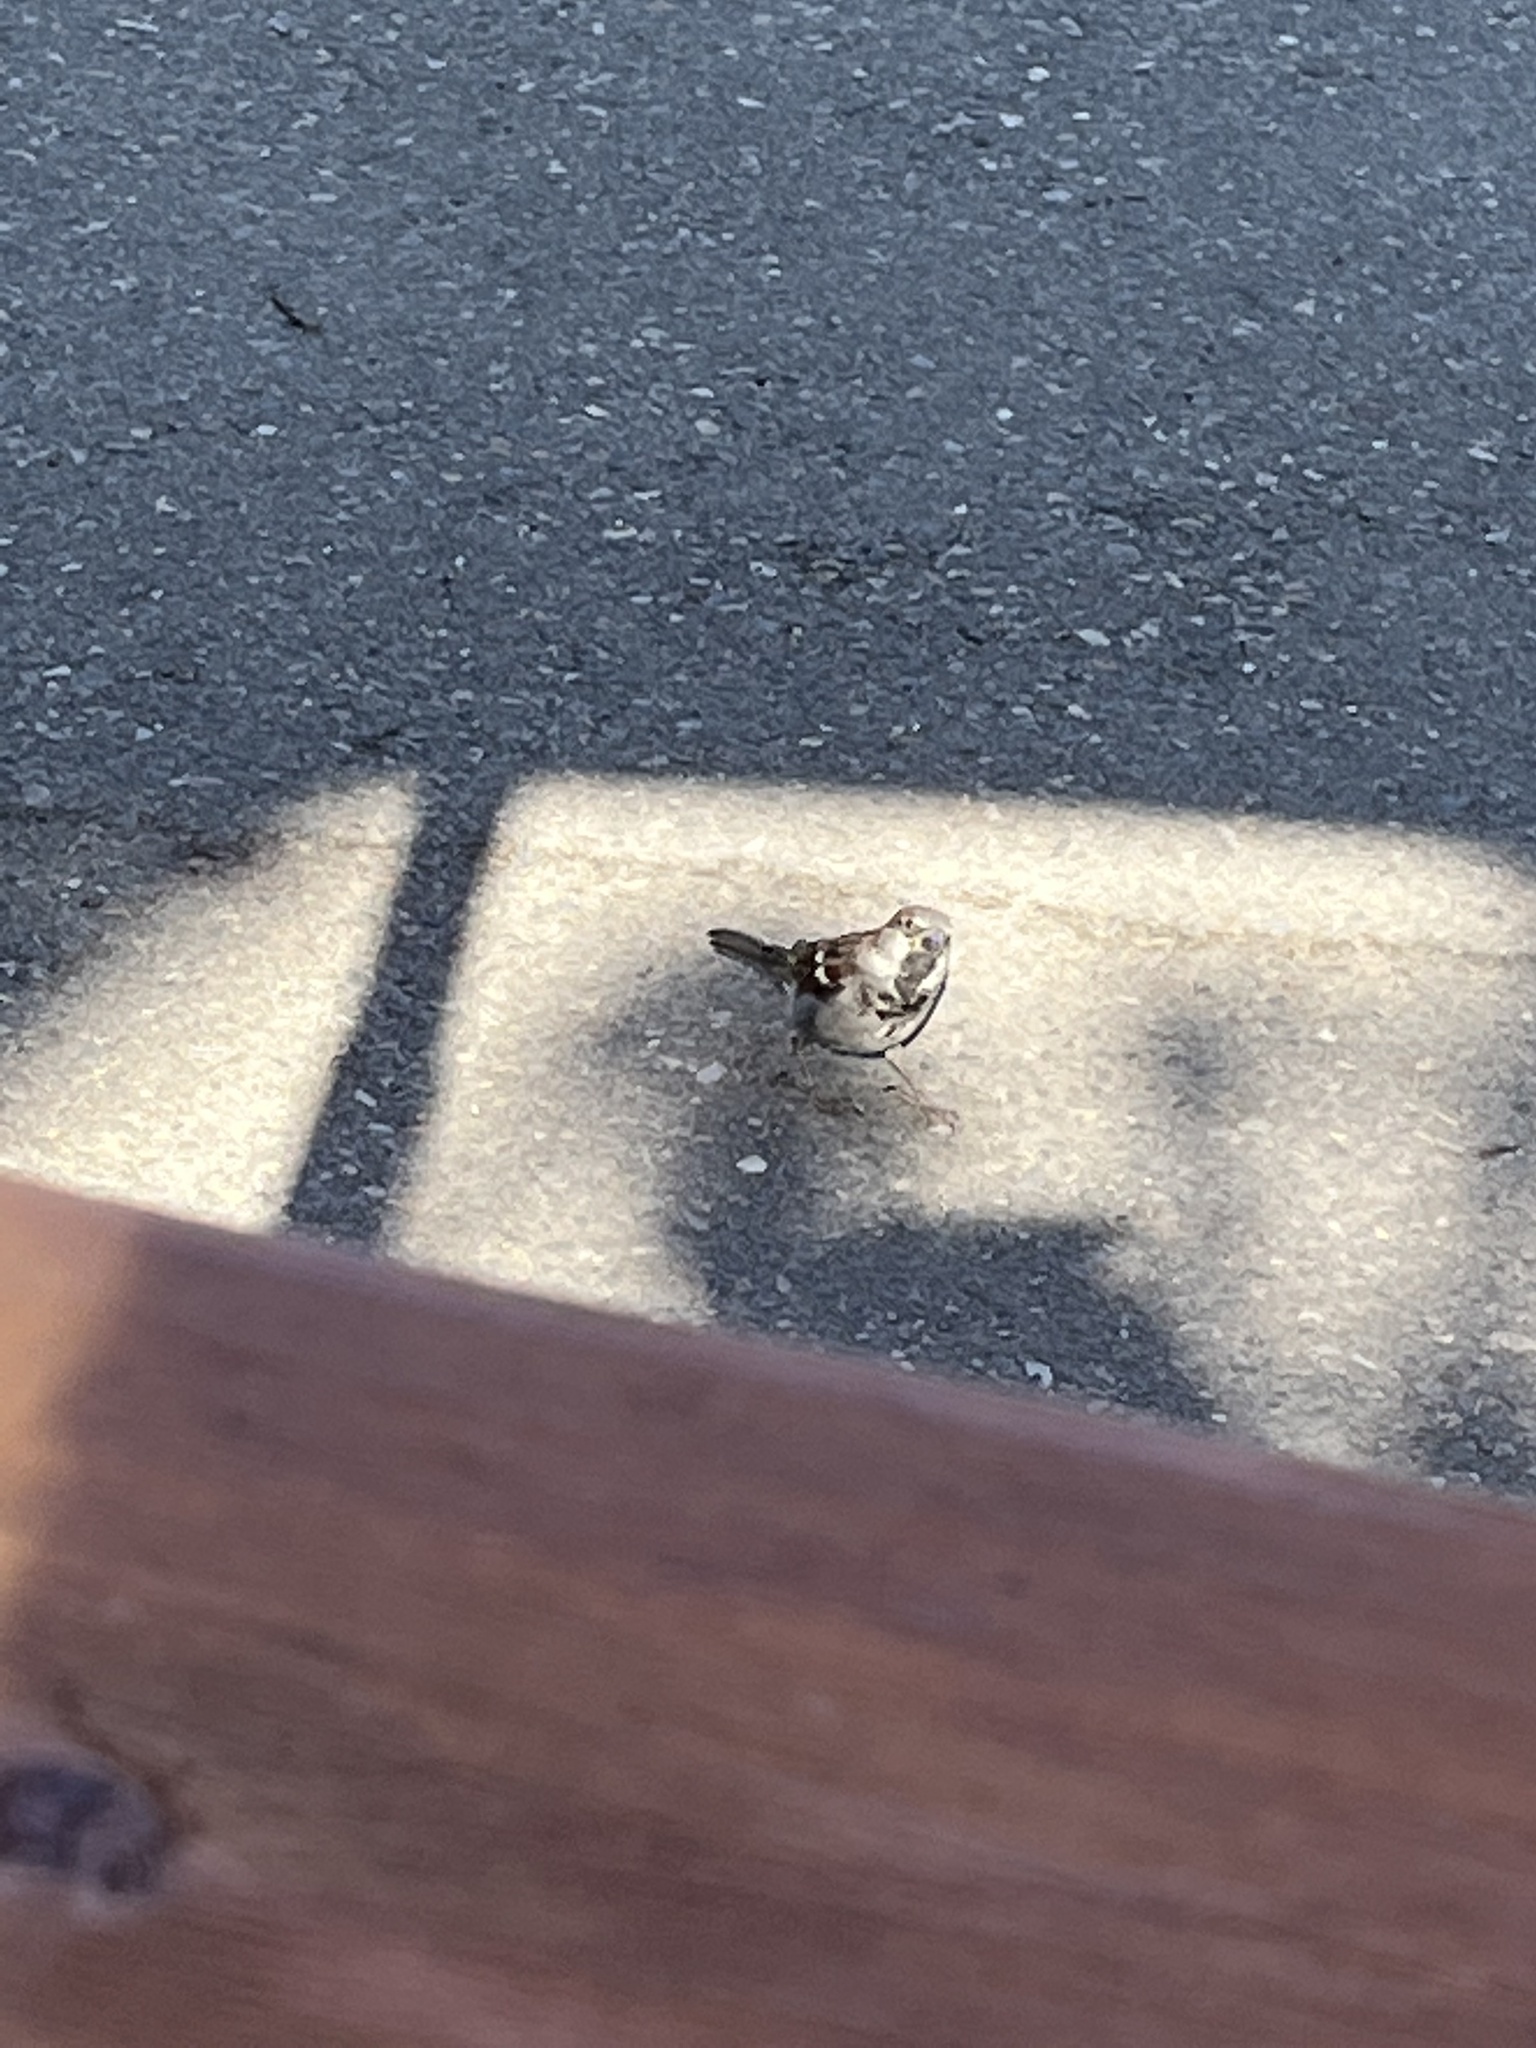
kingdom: Animalia
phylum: Chordata
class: Aves
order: Passeriformes
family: Passeridae
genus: Passer
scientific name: Passer domesticus
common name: House sparrow
